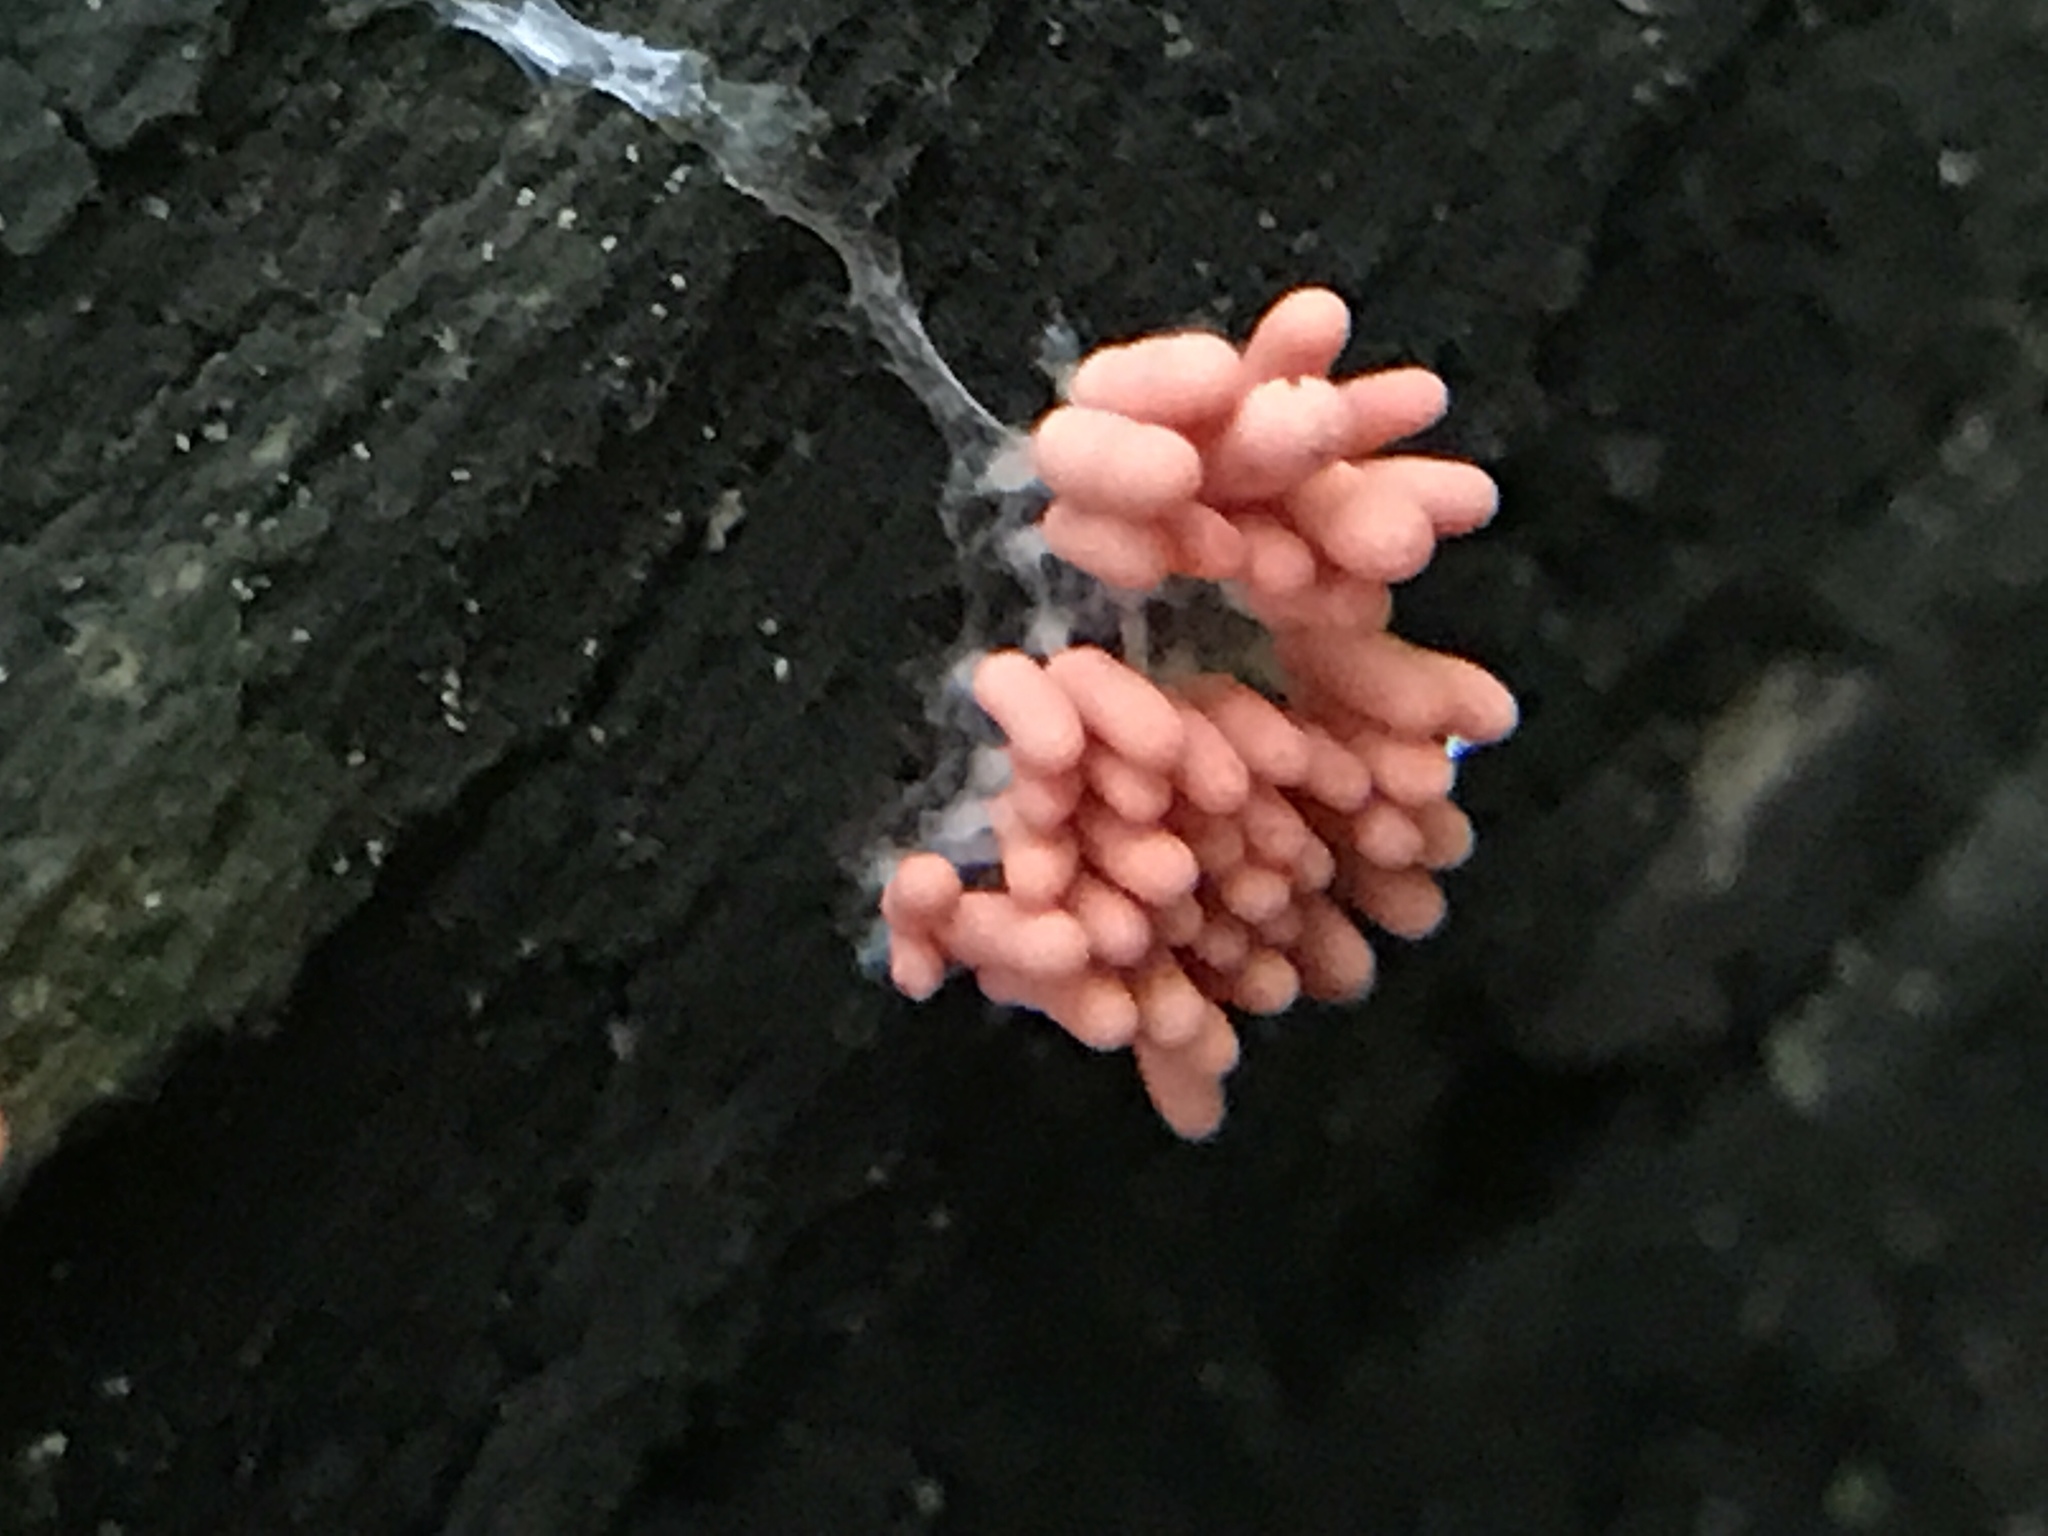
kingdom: Protozoa
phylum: Mycetozoa
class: Myxomycetes
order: Trichiales
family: Arcyriaceae
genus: Arcyria
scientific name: Arcyria insignis
